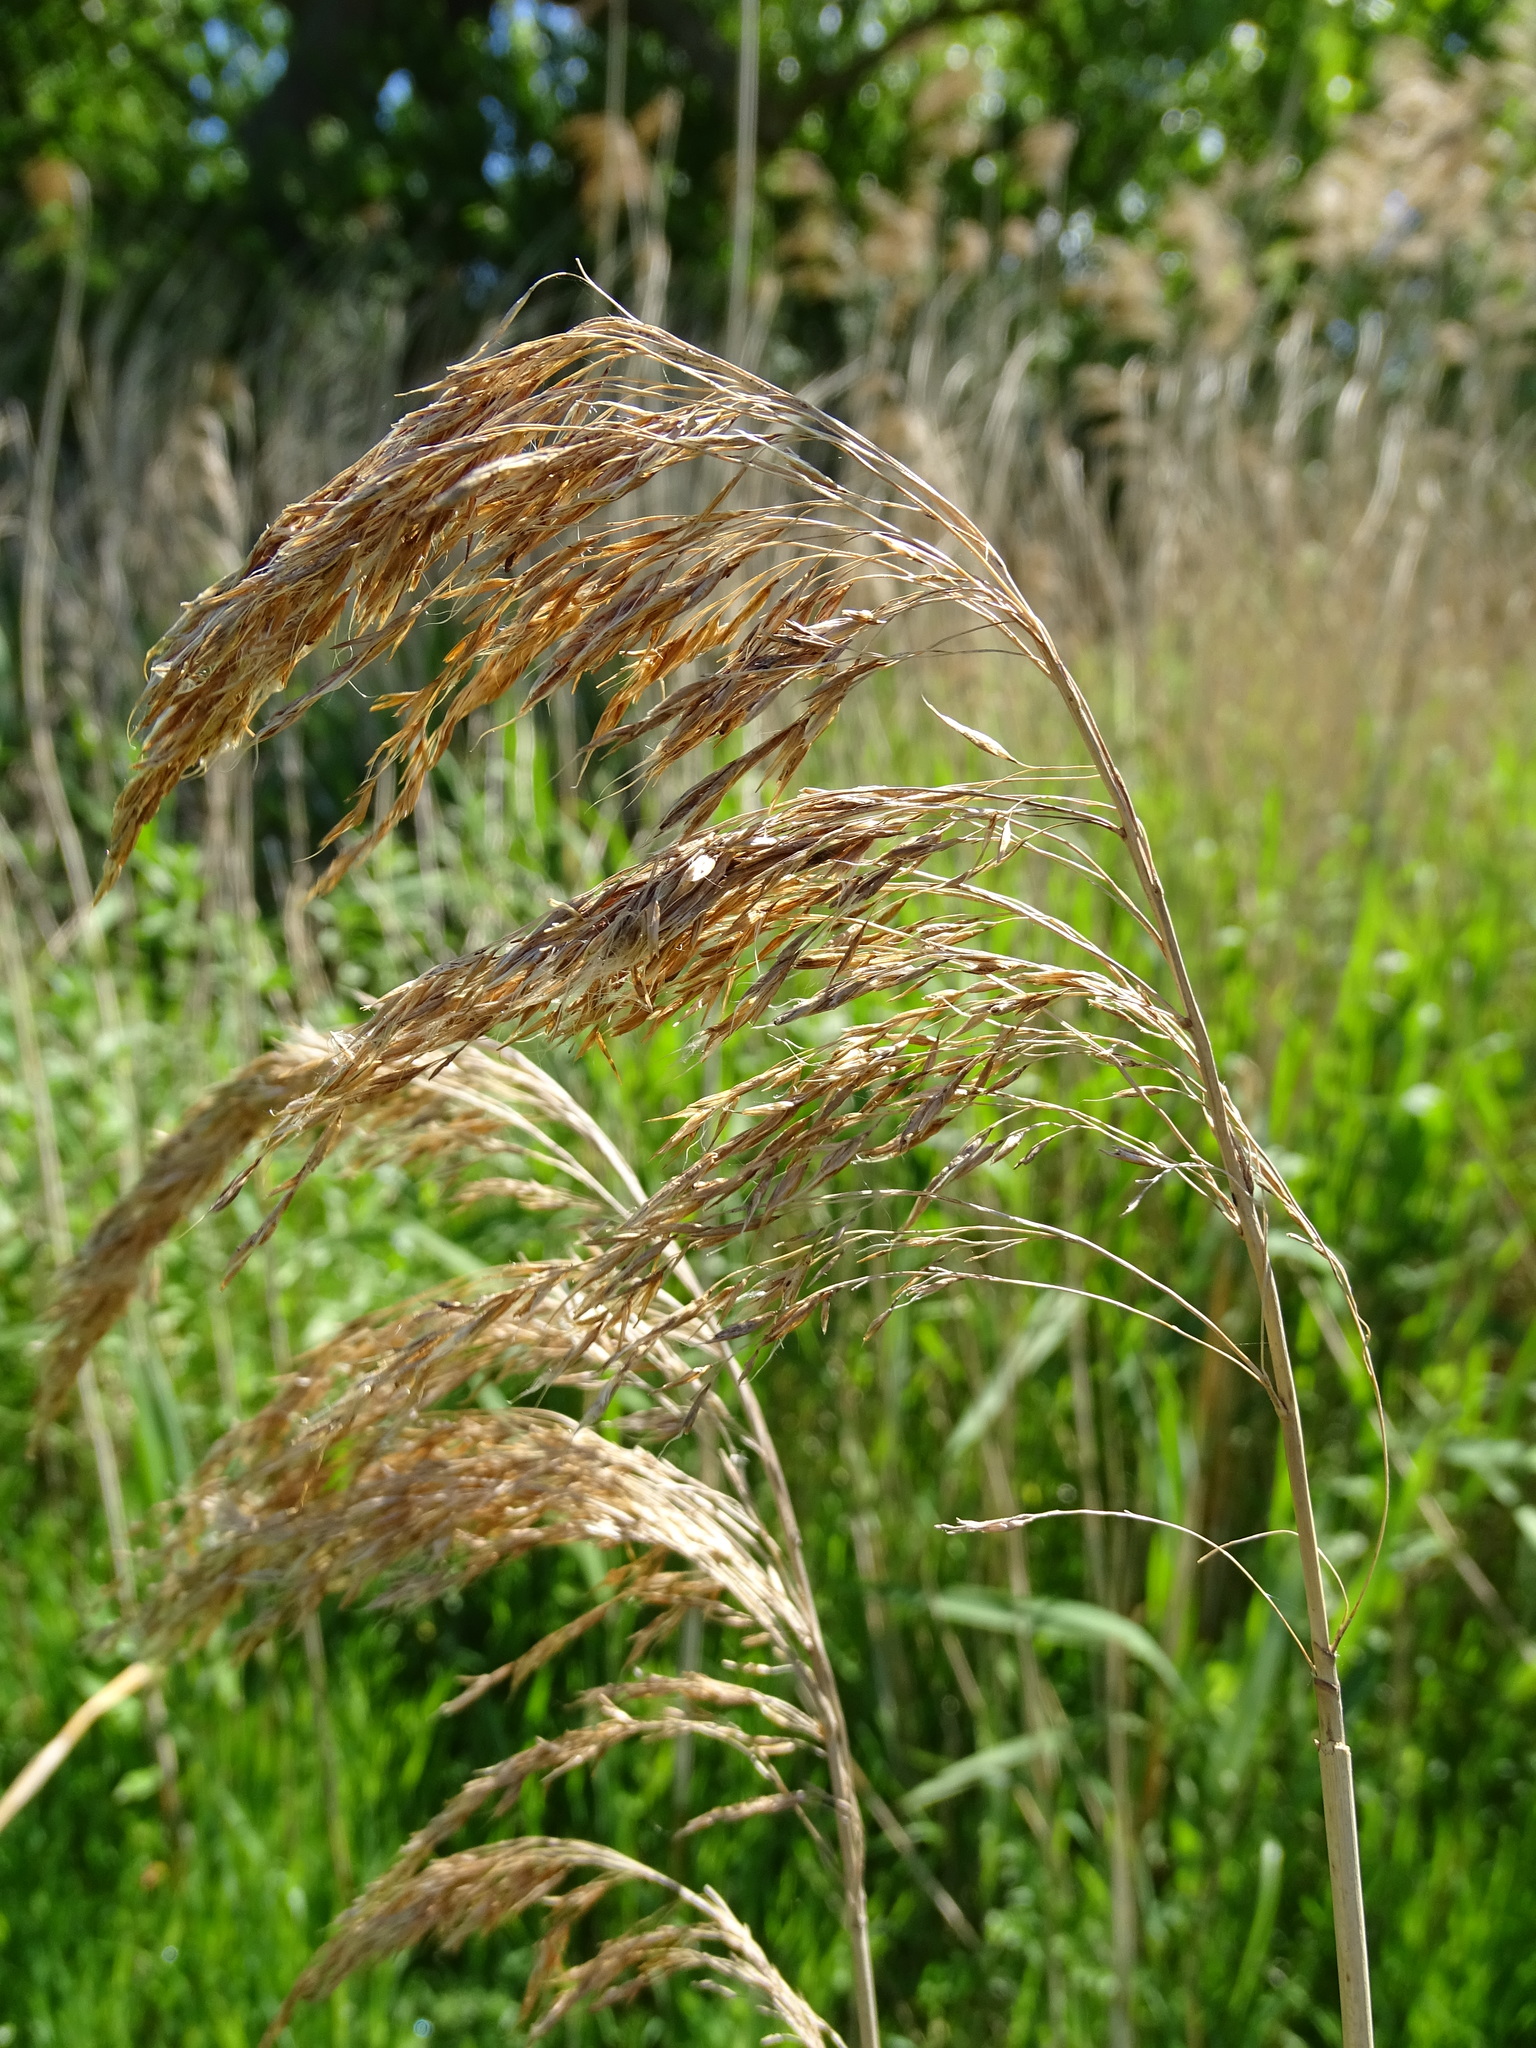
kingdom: Plantae
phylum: Tracheophyta
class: Liliopsida
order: Poales
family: Poaceae
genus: Phragmites
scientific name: Phragmites australis
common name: Common reed
